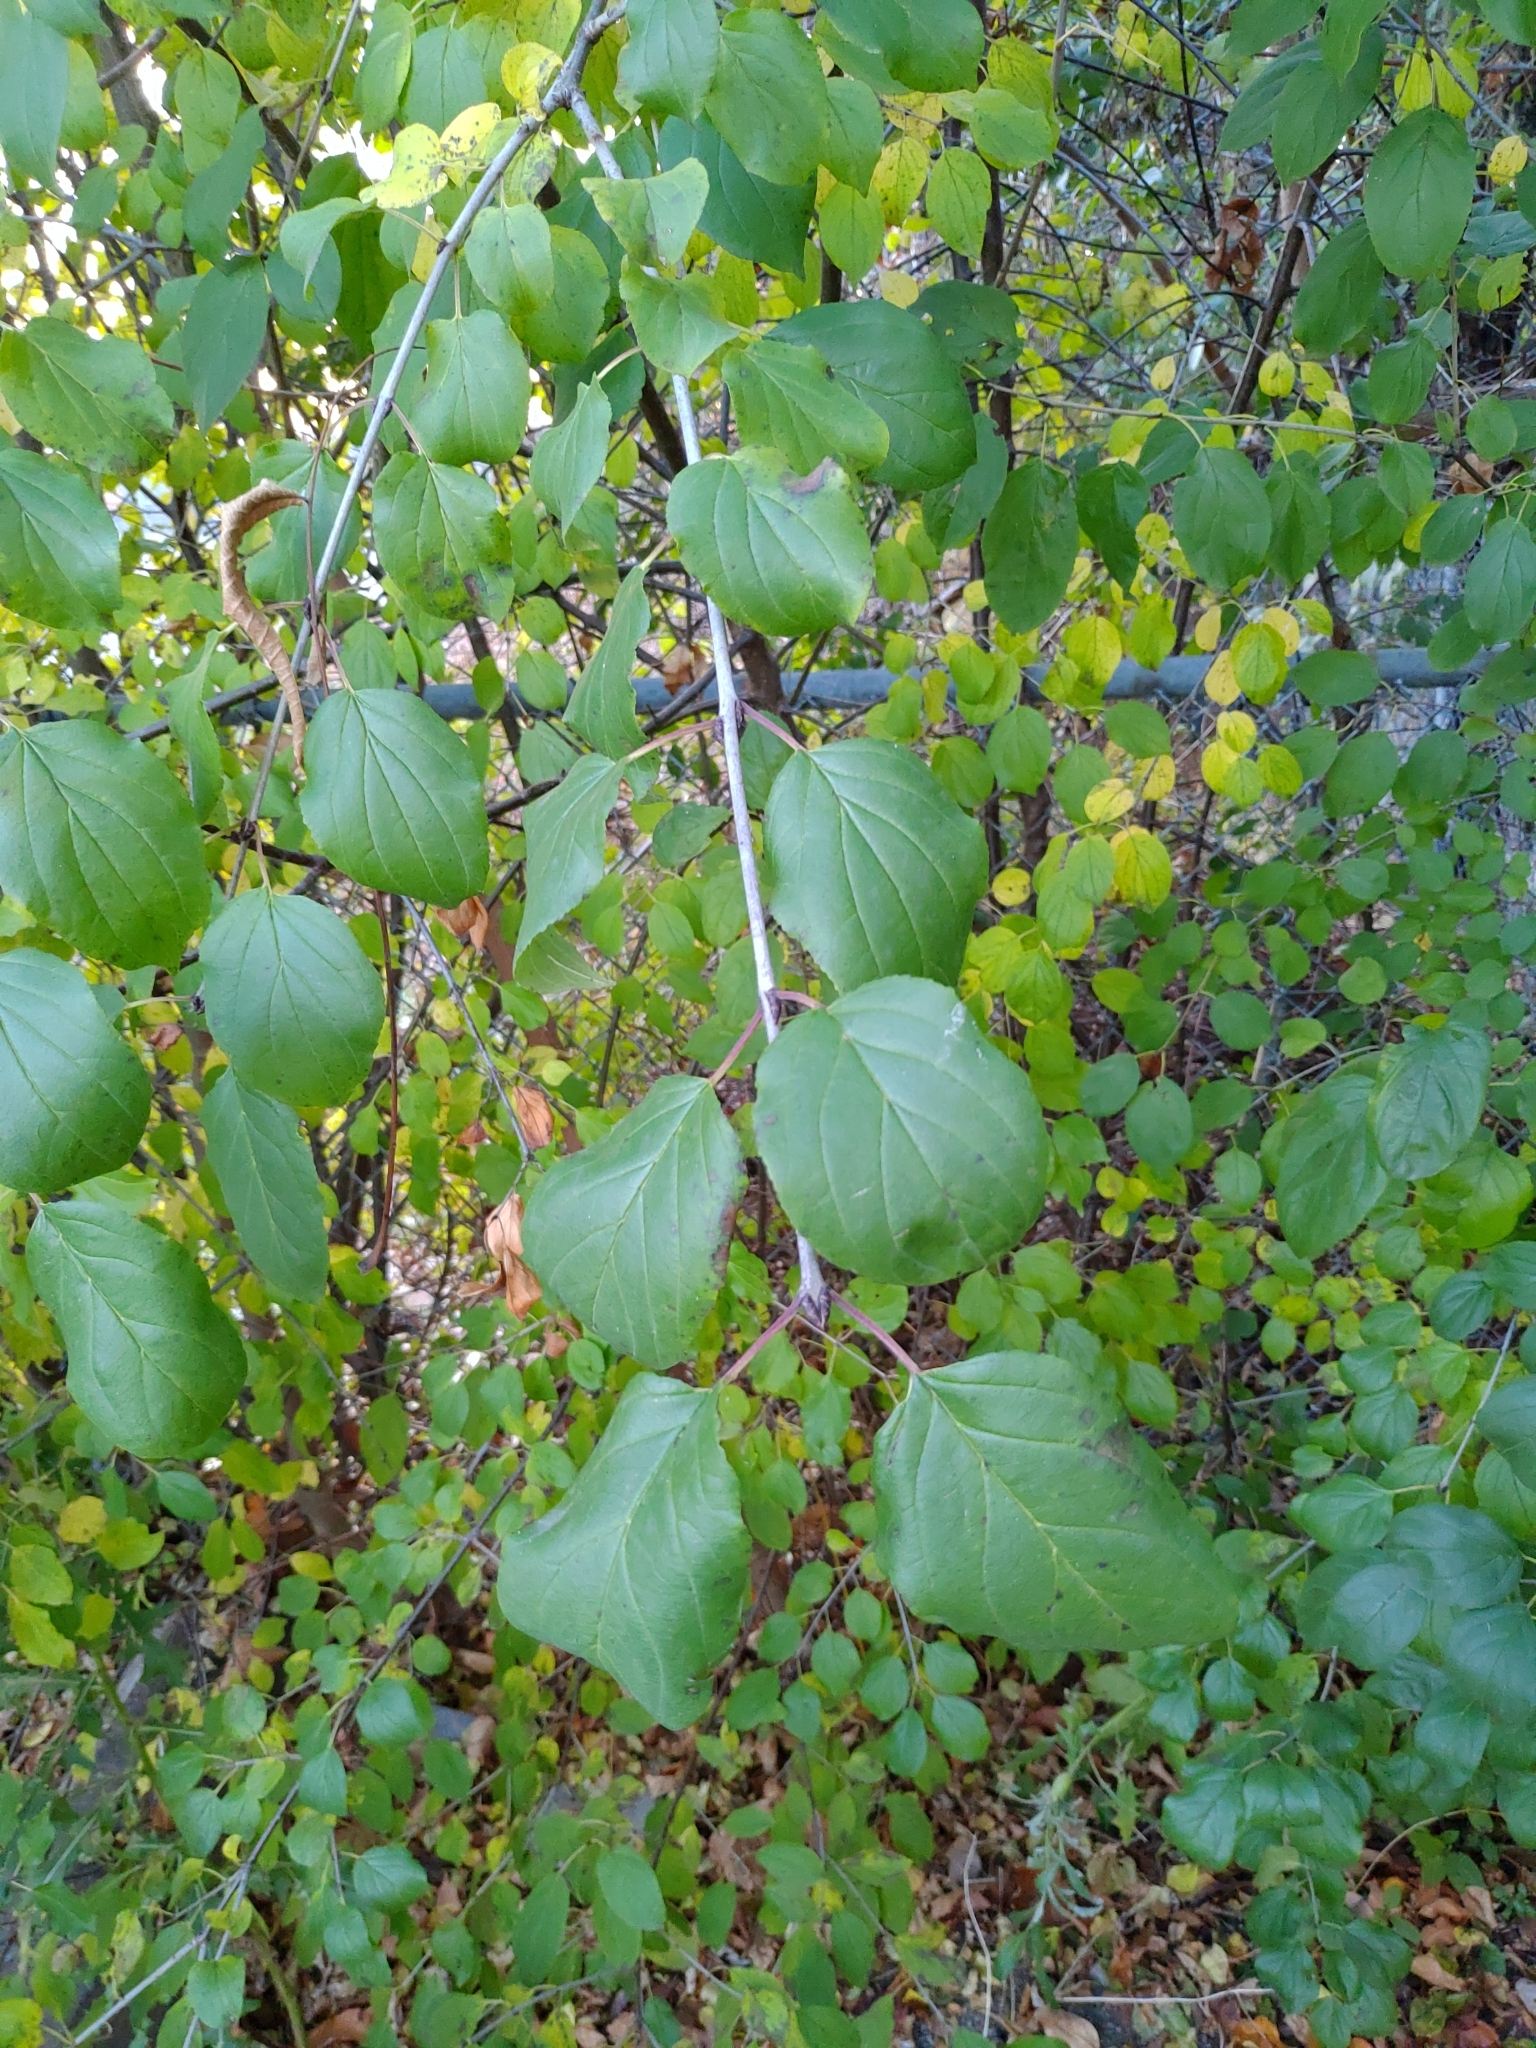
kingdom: Plantae
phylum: Tracheophyta
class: Magnoliopsida
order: Rosales
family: Rhamnaceae
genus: Rhamnus
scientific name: Rhamnus cathartica
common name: Common buckthorn
